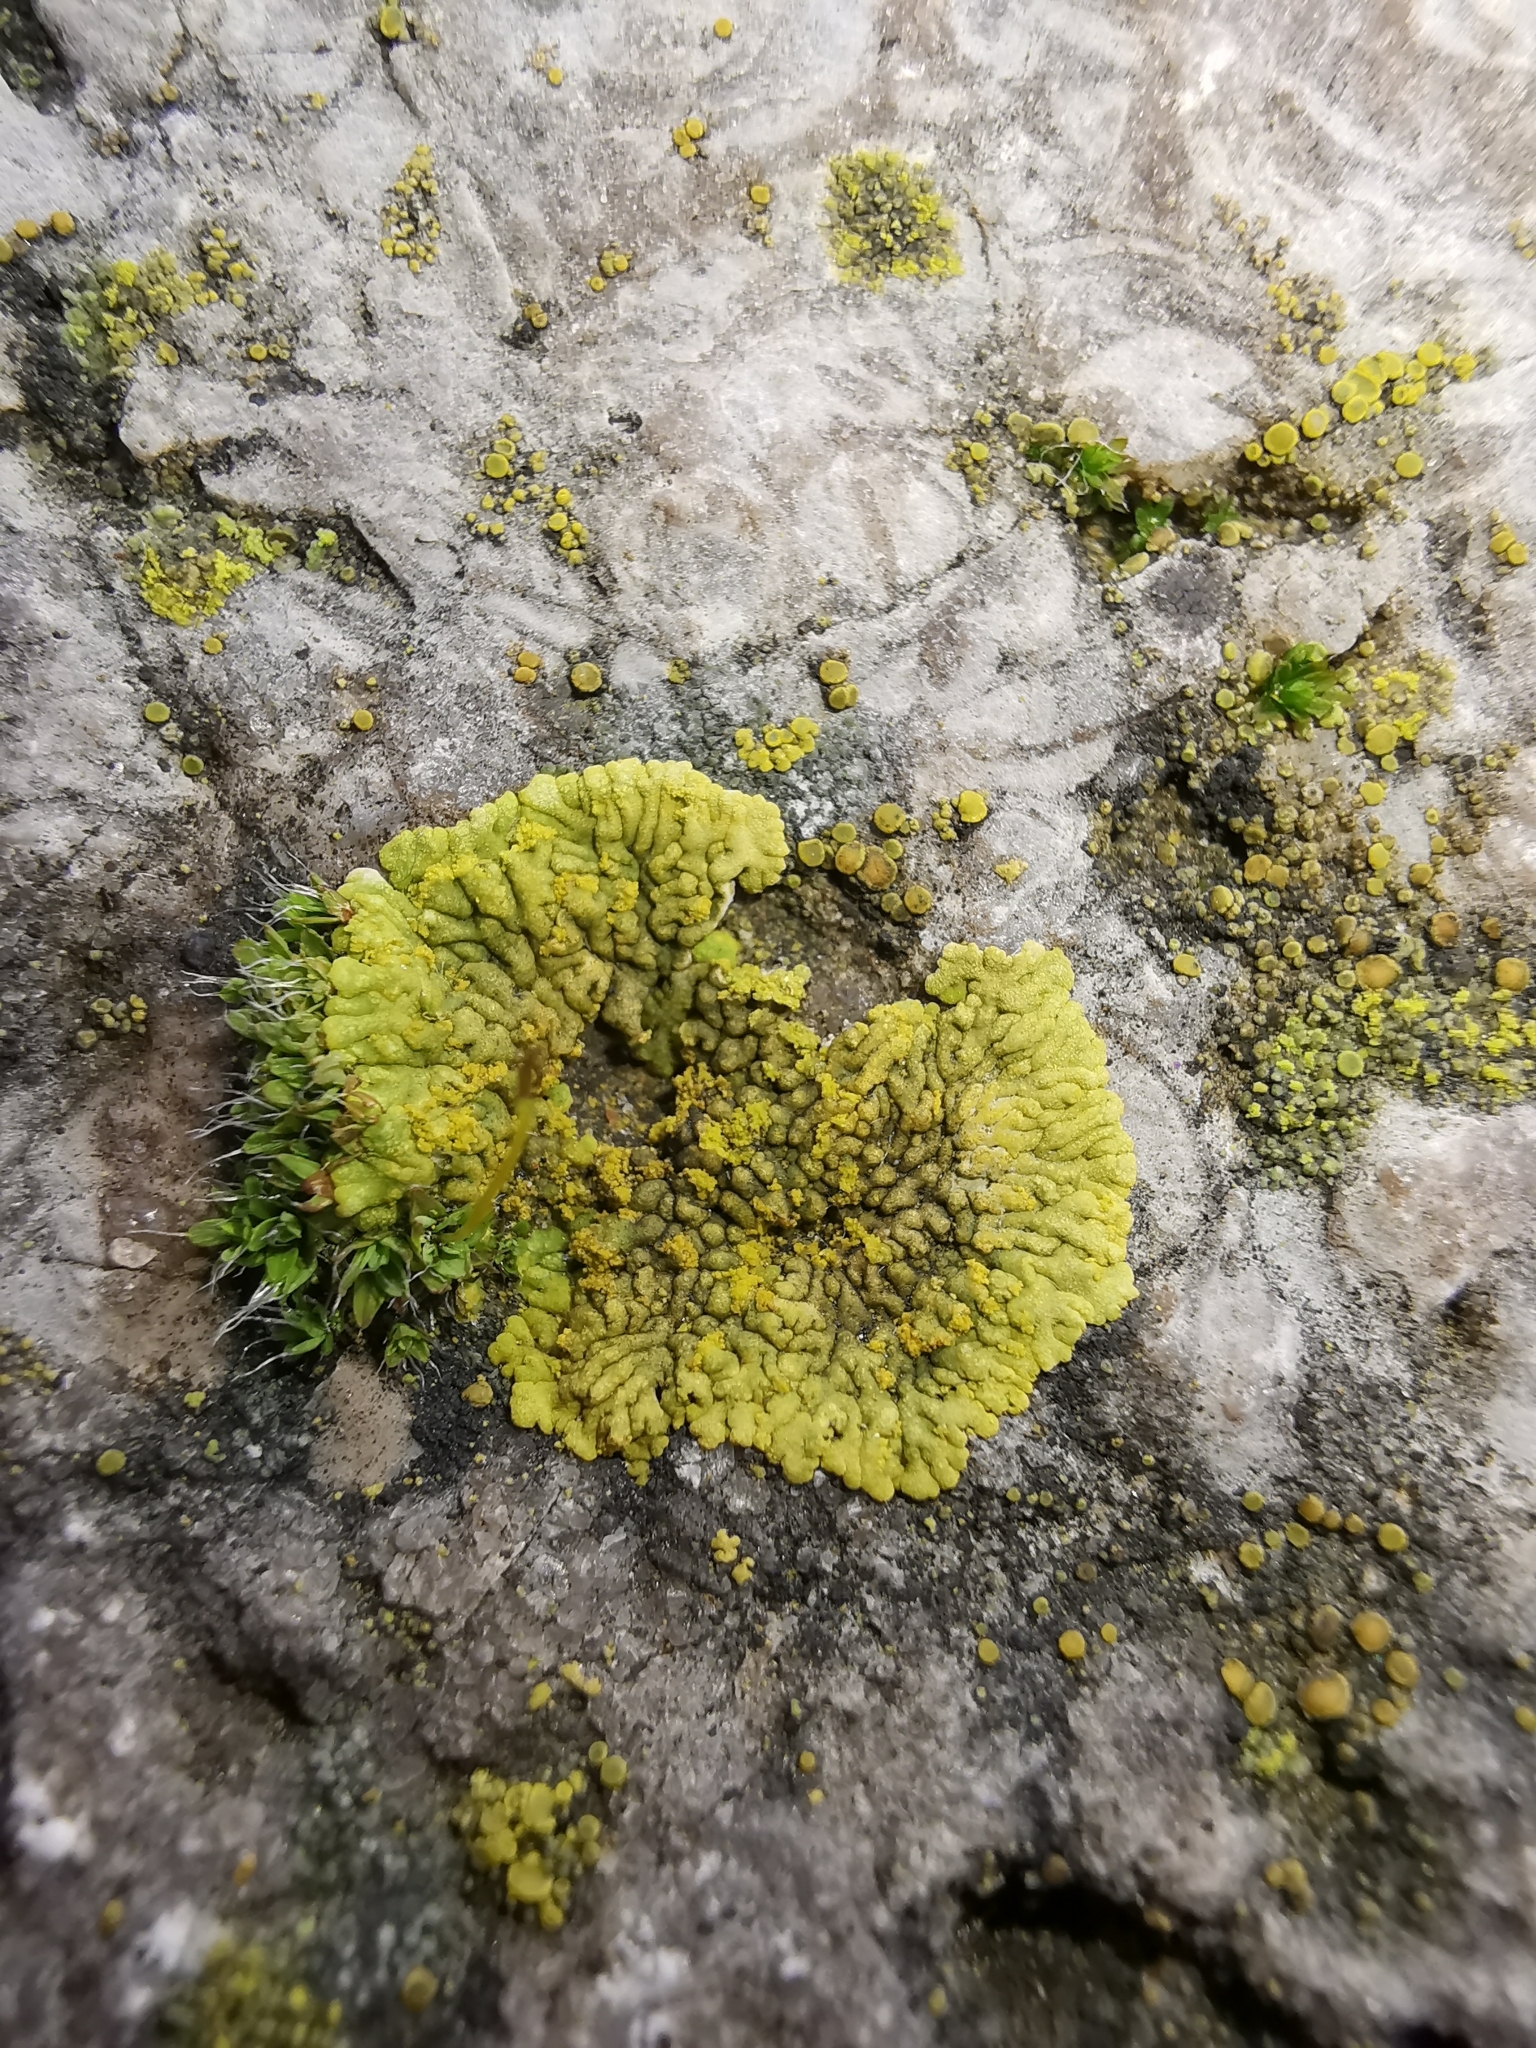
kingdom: Fungi
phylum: Ascomycota
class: Lecanoromycetes
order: Teloschistales
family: Teloschistaceae
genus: Calogaya
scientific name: Calogaya decipiens
